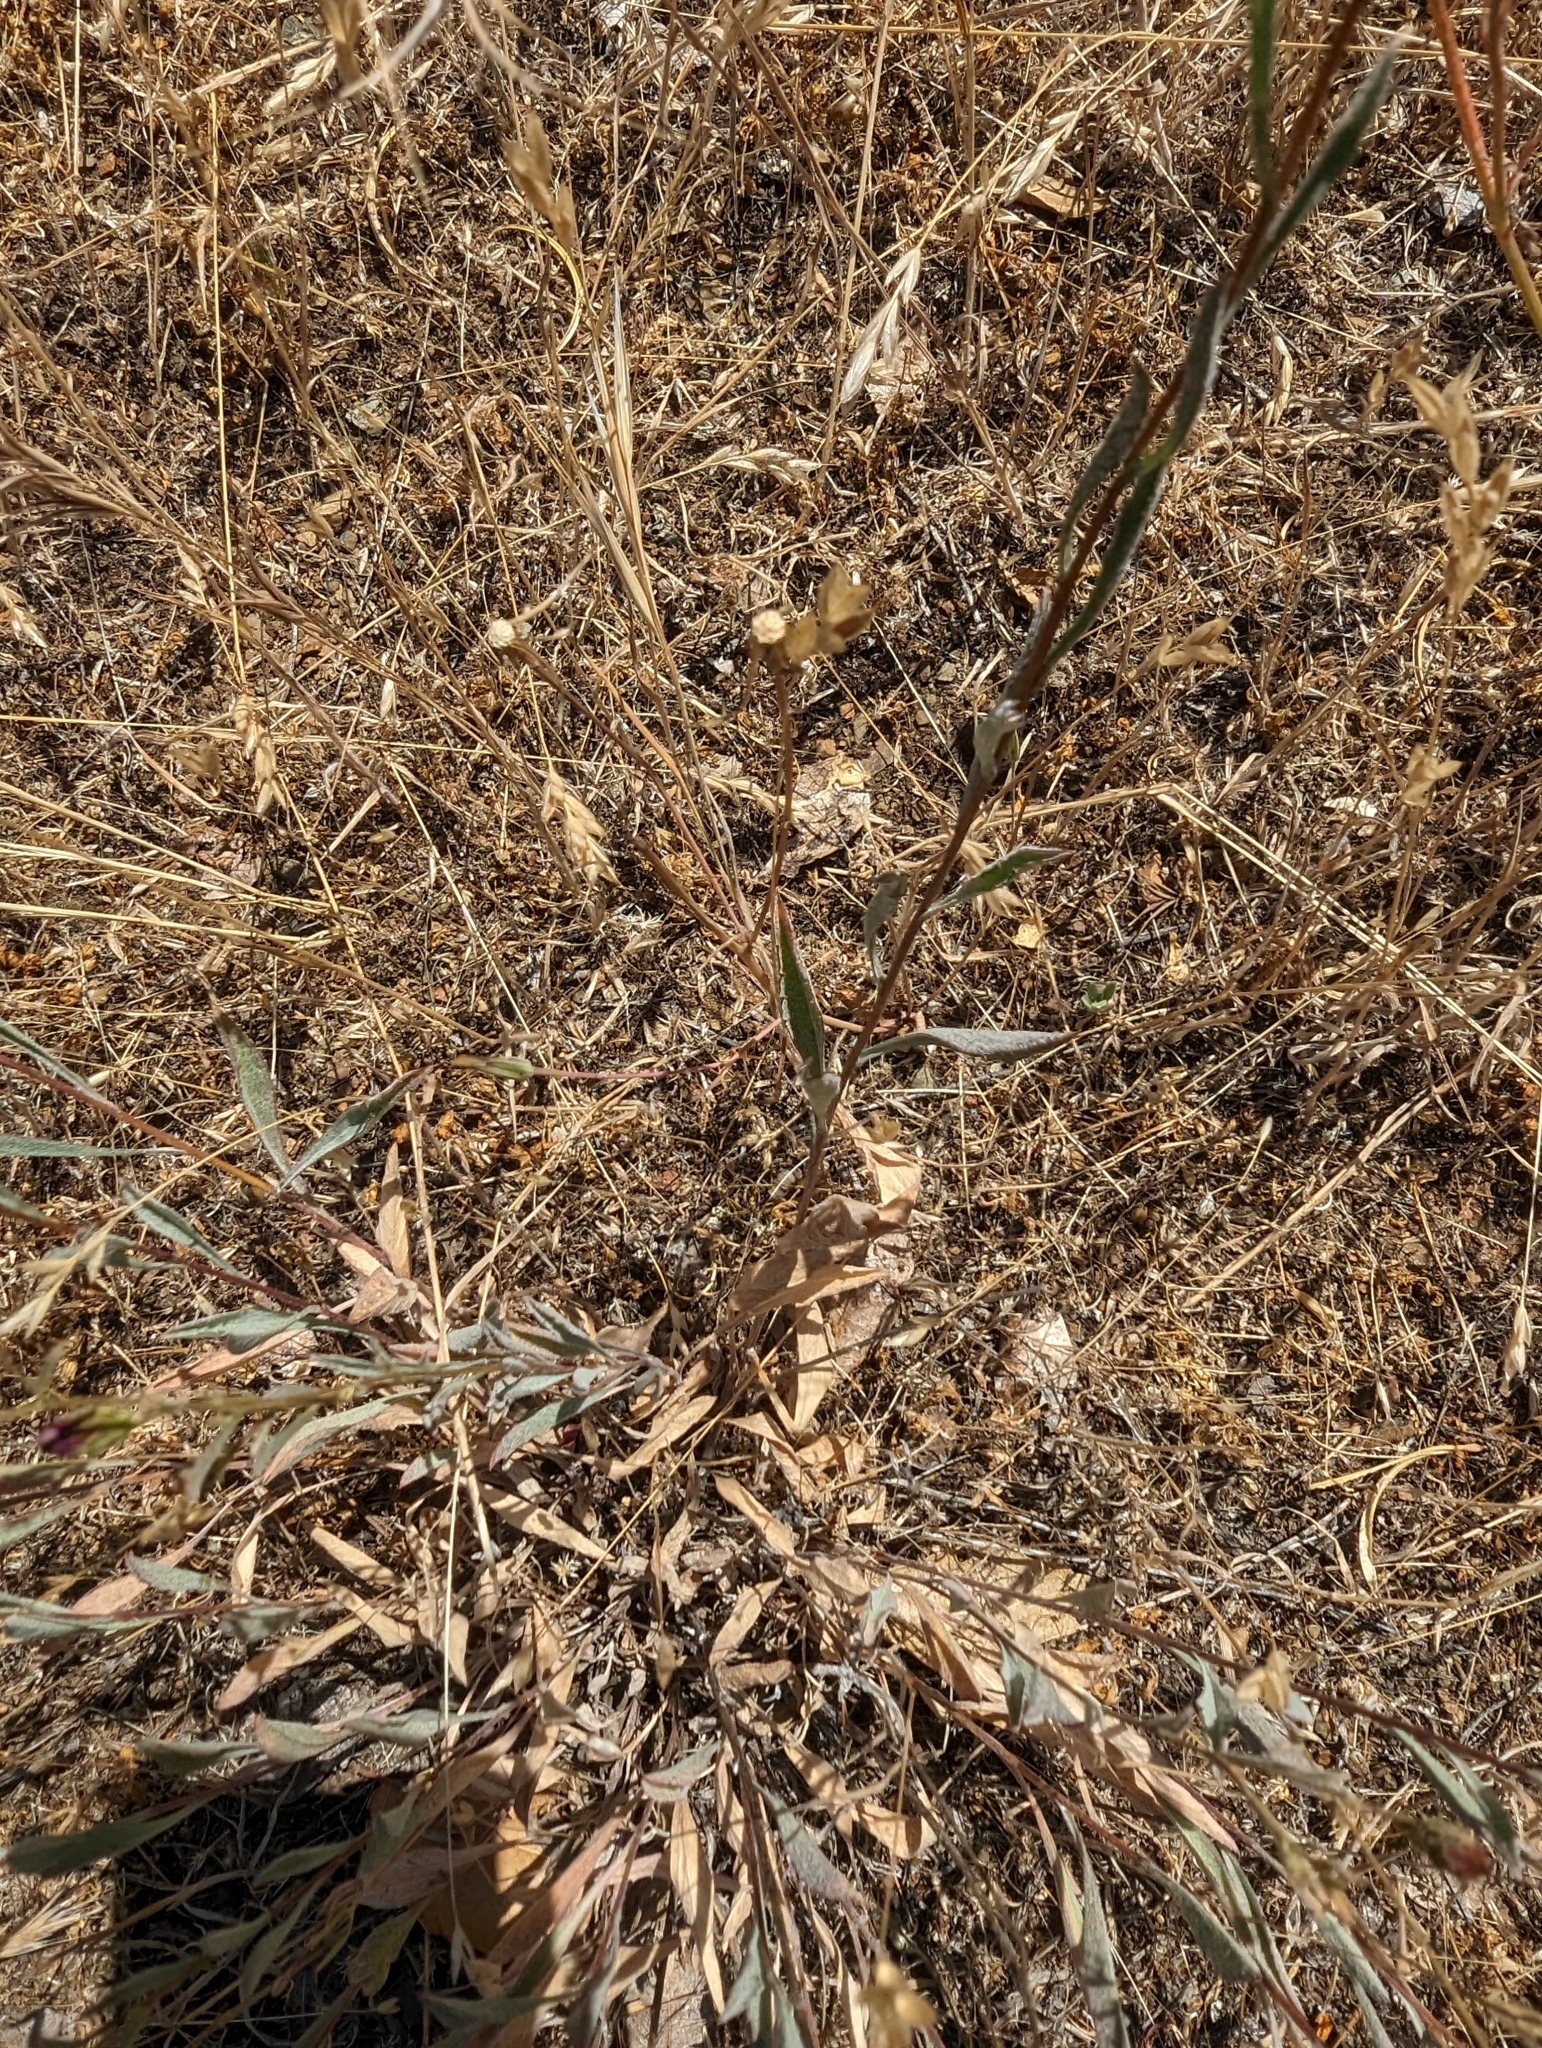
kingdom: Plantae
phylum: Tracheophyta
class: Magnoliopsida
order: Asterales
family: Asteraceae
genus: Corethrogyne
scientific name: Corethrogyne filaginifolia
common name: Sand-aster
